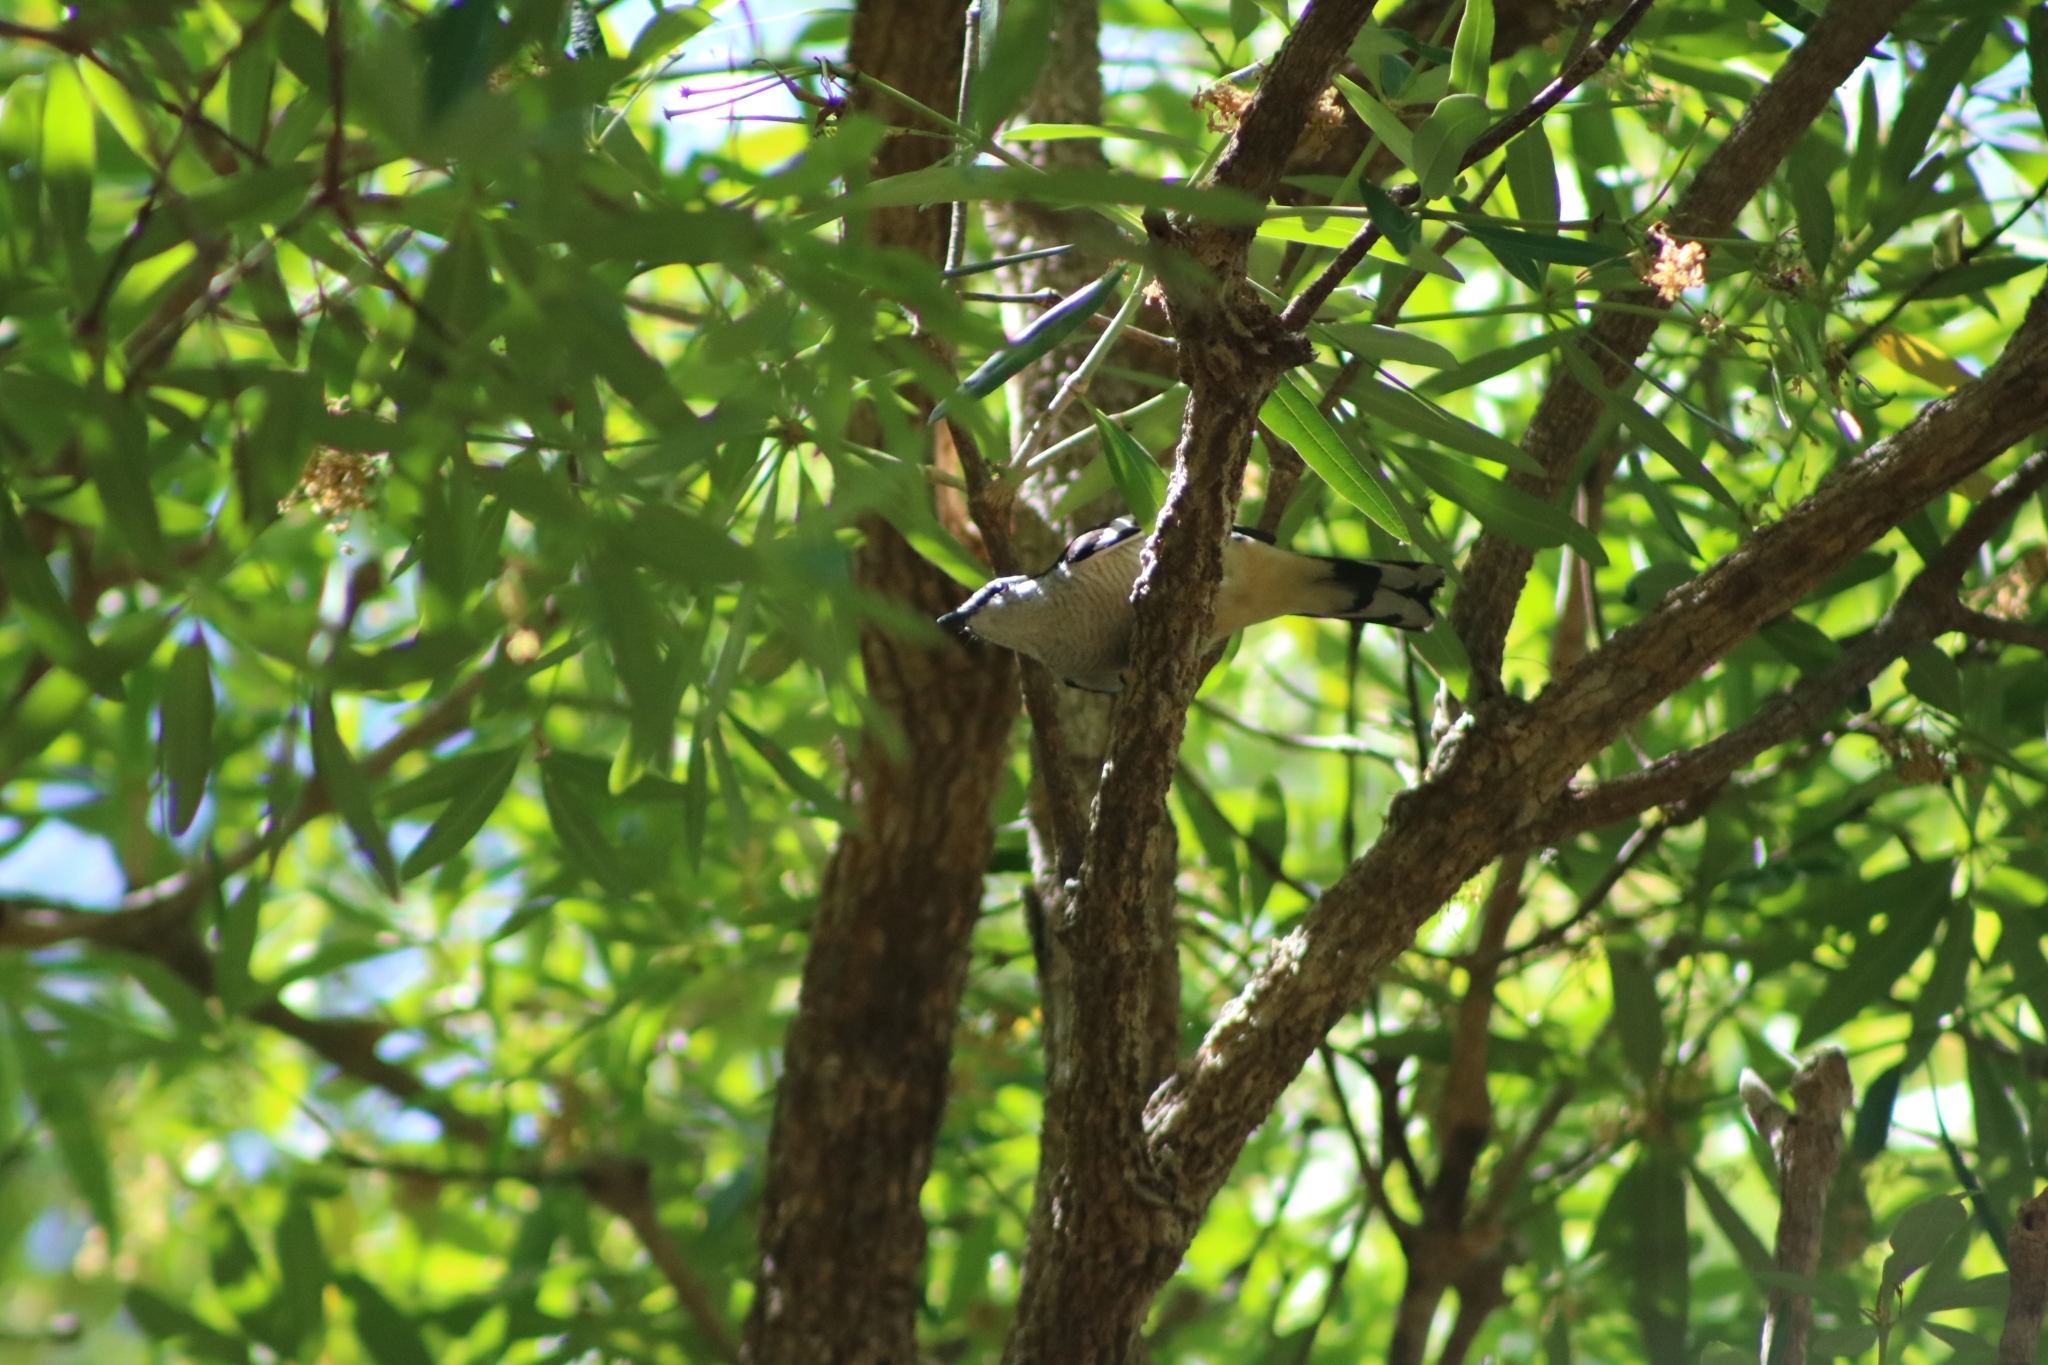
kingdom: Animalia
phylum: Chordata
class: Aves
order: Passeriformes
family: Campephagidae
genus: Lalage
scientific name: Lalage leucomela
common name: Varied triller
